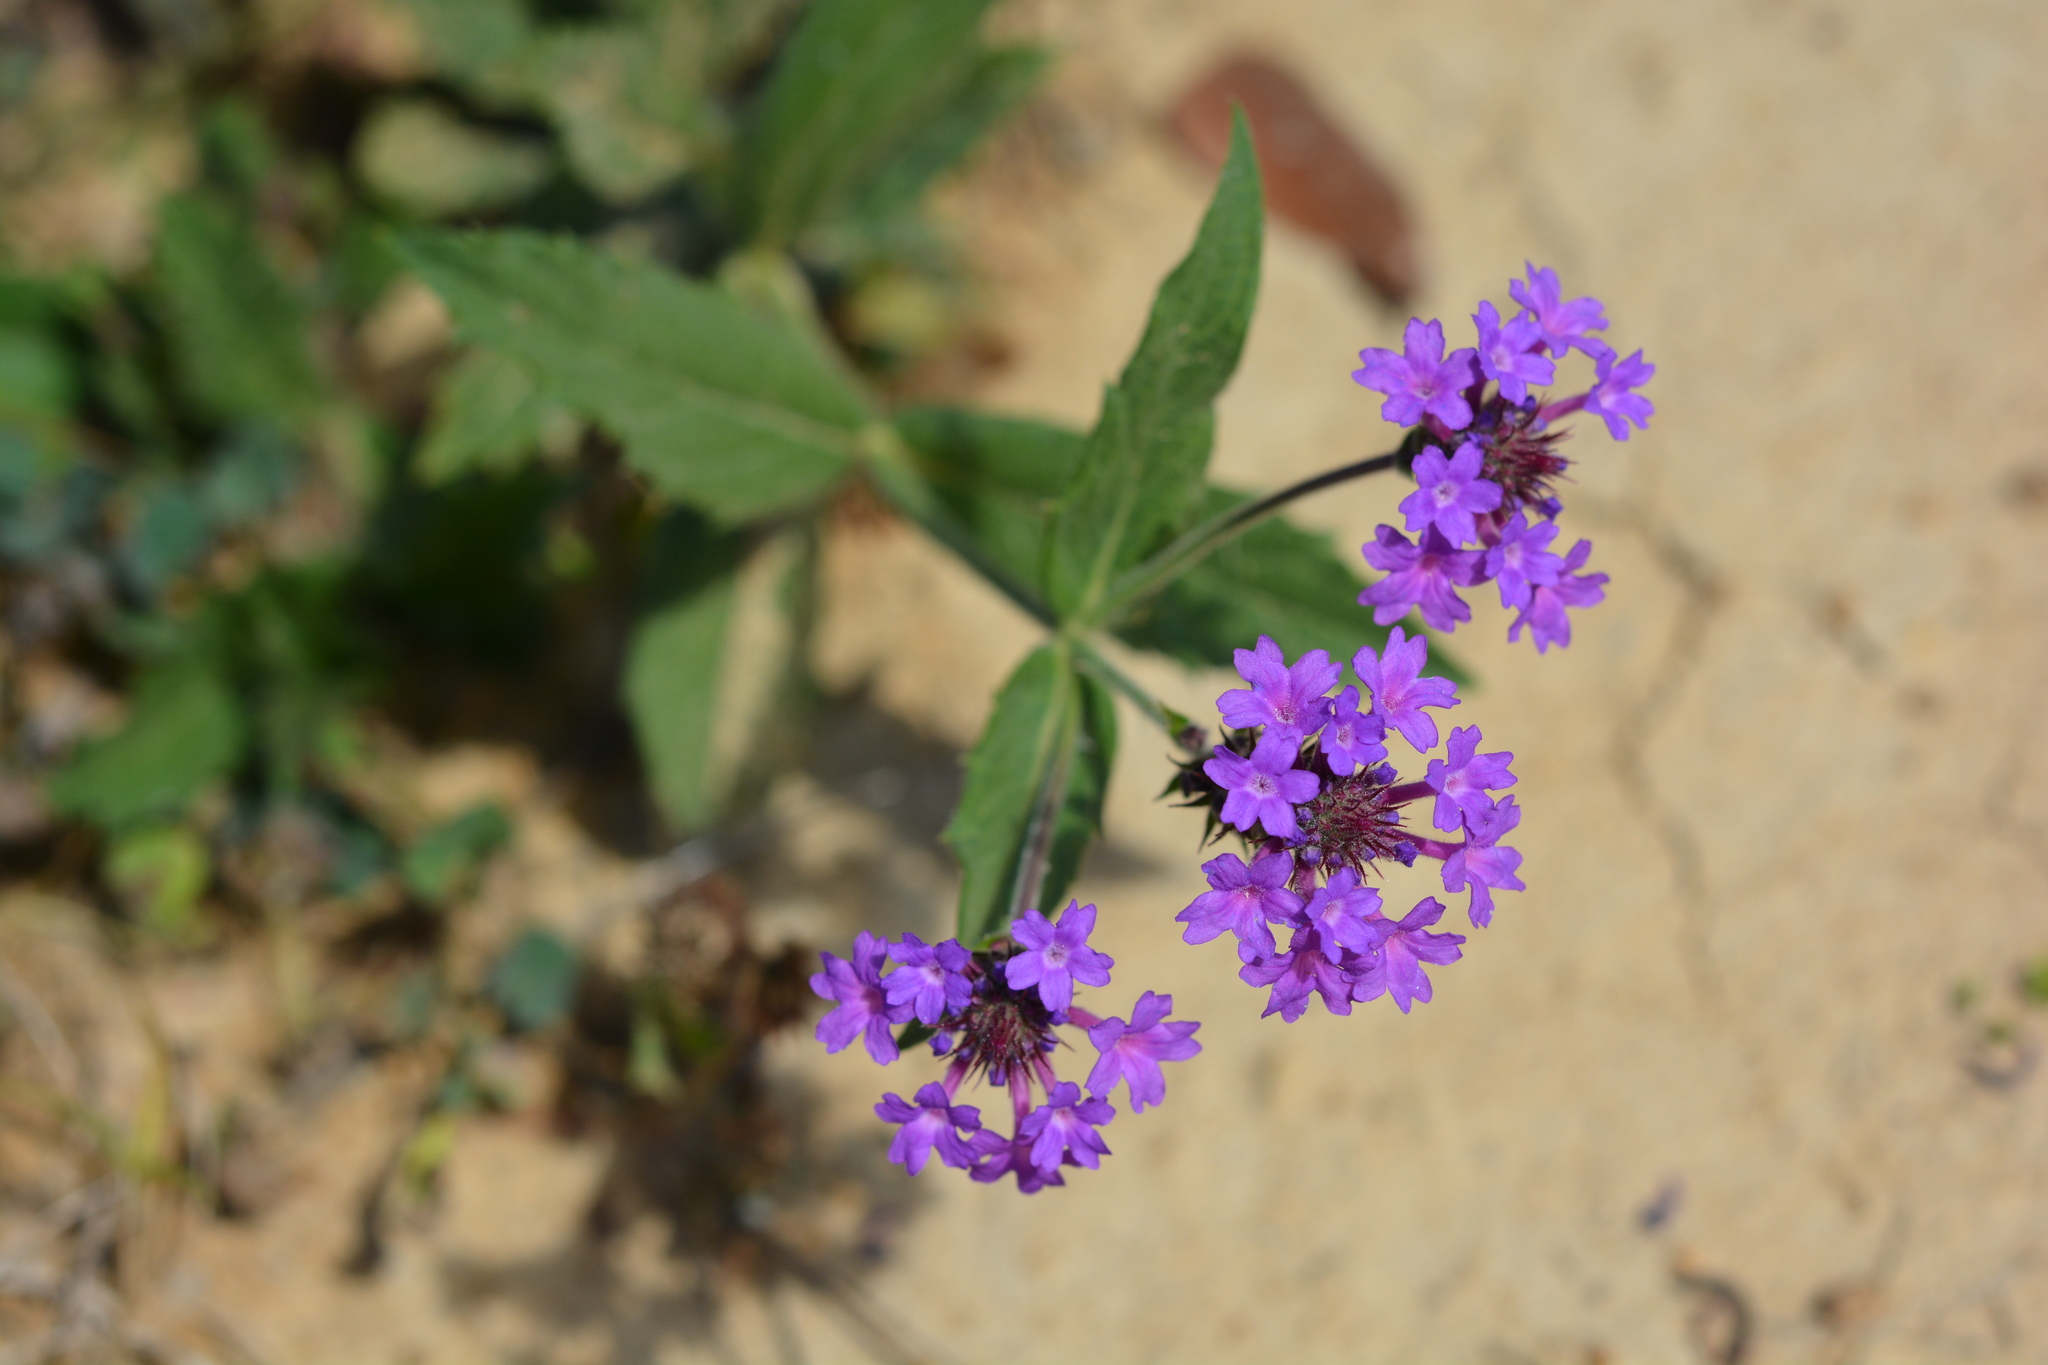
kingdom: Plantae
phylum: Tracheophyta
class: Magnoliopsida
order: Lamiales
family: Verbenaceae
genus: Verbena
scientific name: Verbena rigida
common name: Slender vervain
